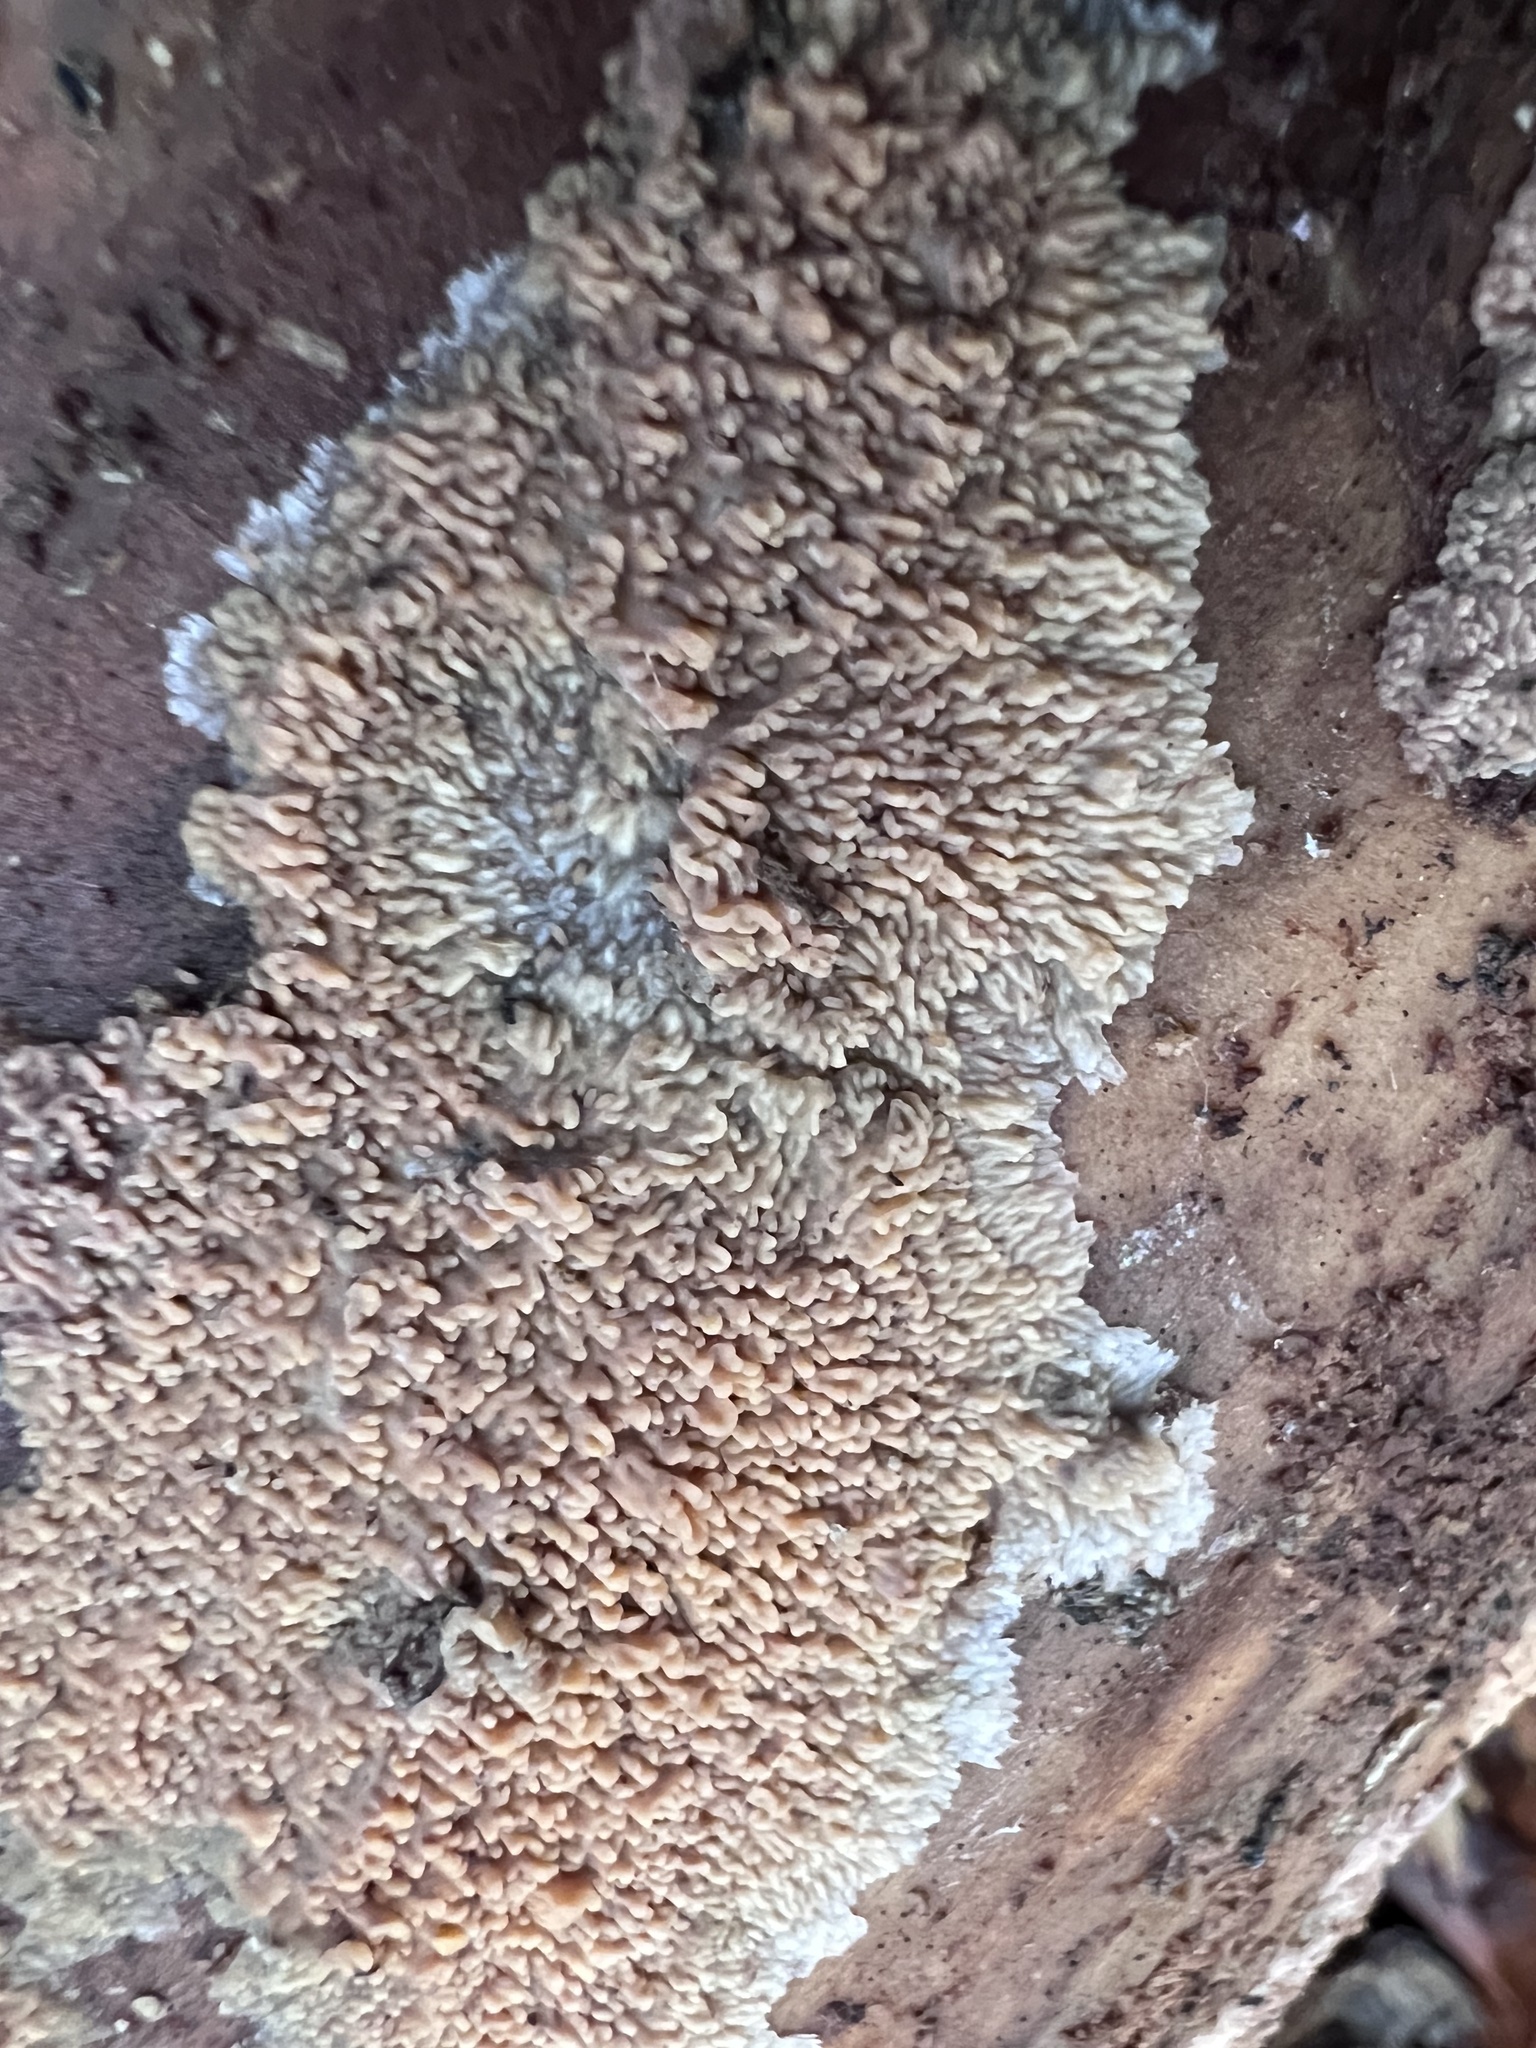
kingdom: Fungi
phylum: Basidiomycota
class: Agaricomycetes
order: Polyporales
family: Meruliaceae
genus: Phlebia
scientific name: Phlebia radiata
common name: Wrinkled crust
